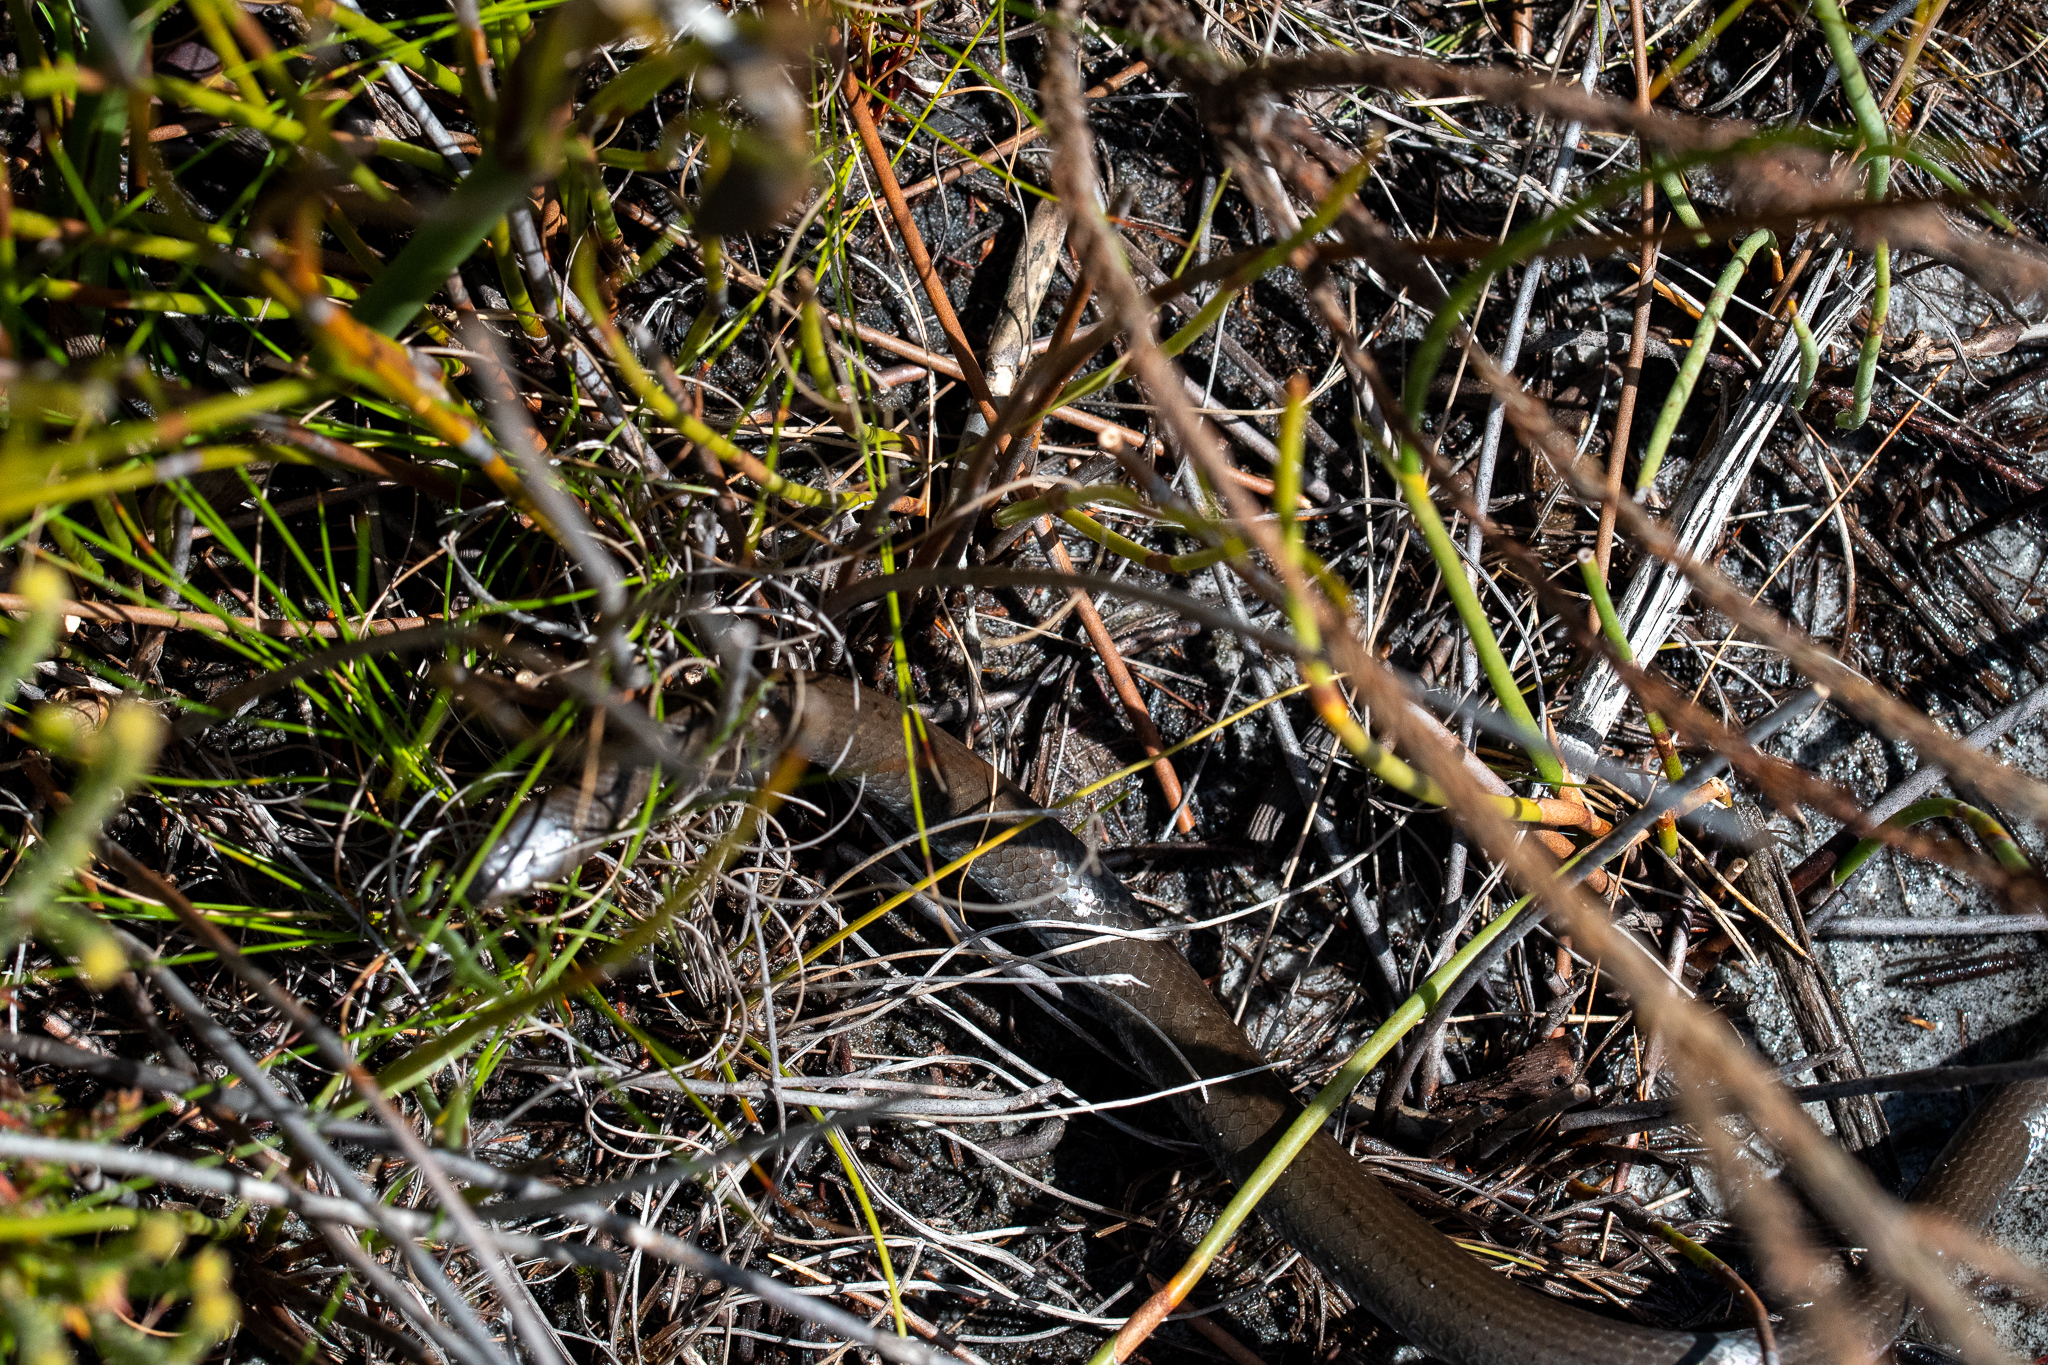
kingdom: Animalia
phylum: Chordata
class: Squamata
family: Pseudoxyrhophiidae
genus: Duberria
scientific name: Duberria lutrix
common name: Common slug eater
